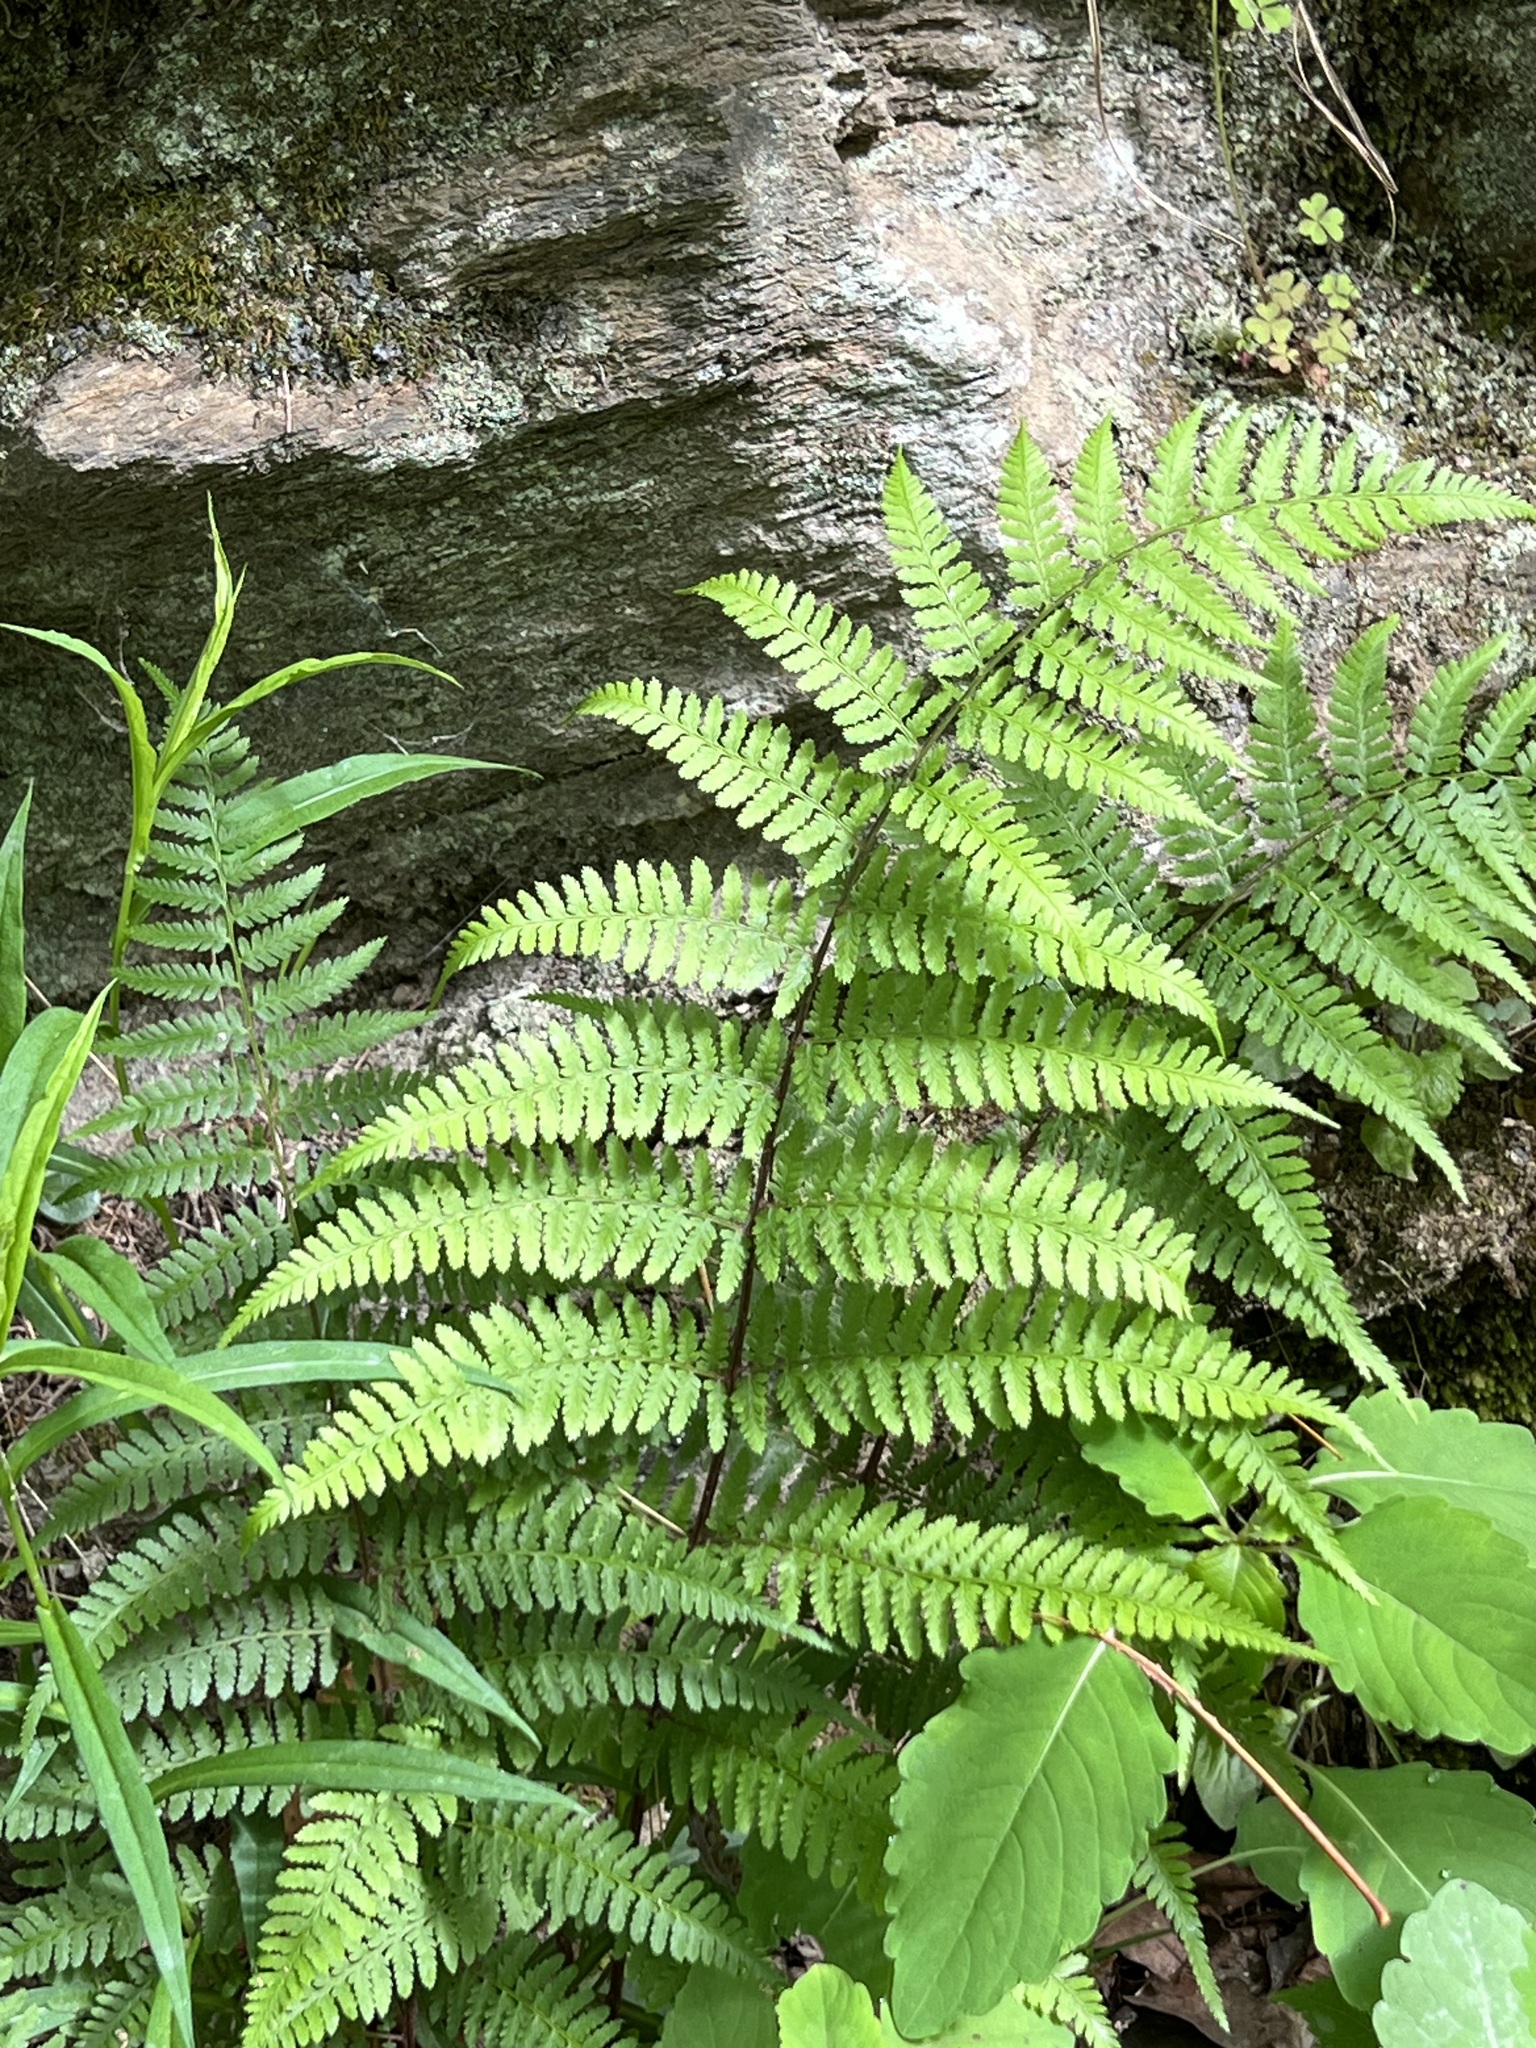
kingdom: Plantae
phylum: Tracheophyta
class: Polypodiopsida
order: Polypodiales
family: Athyriaceae
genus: Athyrium
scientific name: Athyrium asplenioides
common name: Southern lady fern
